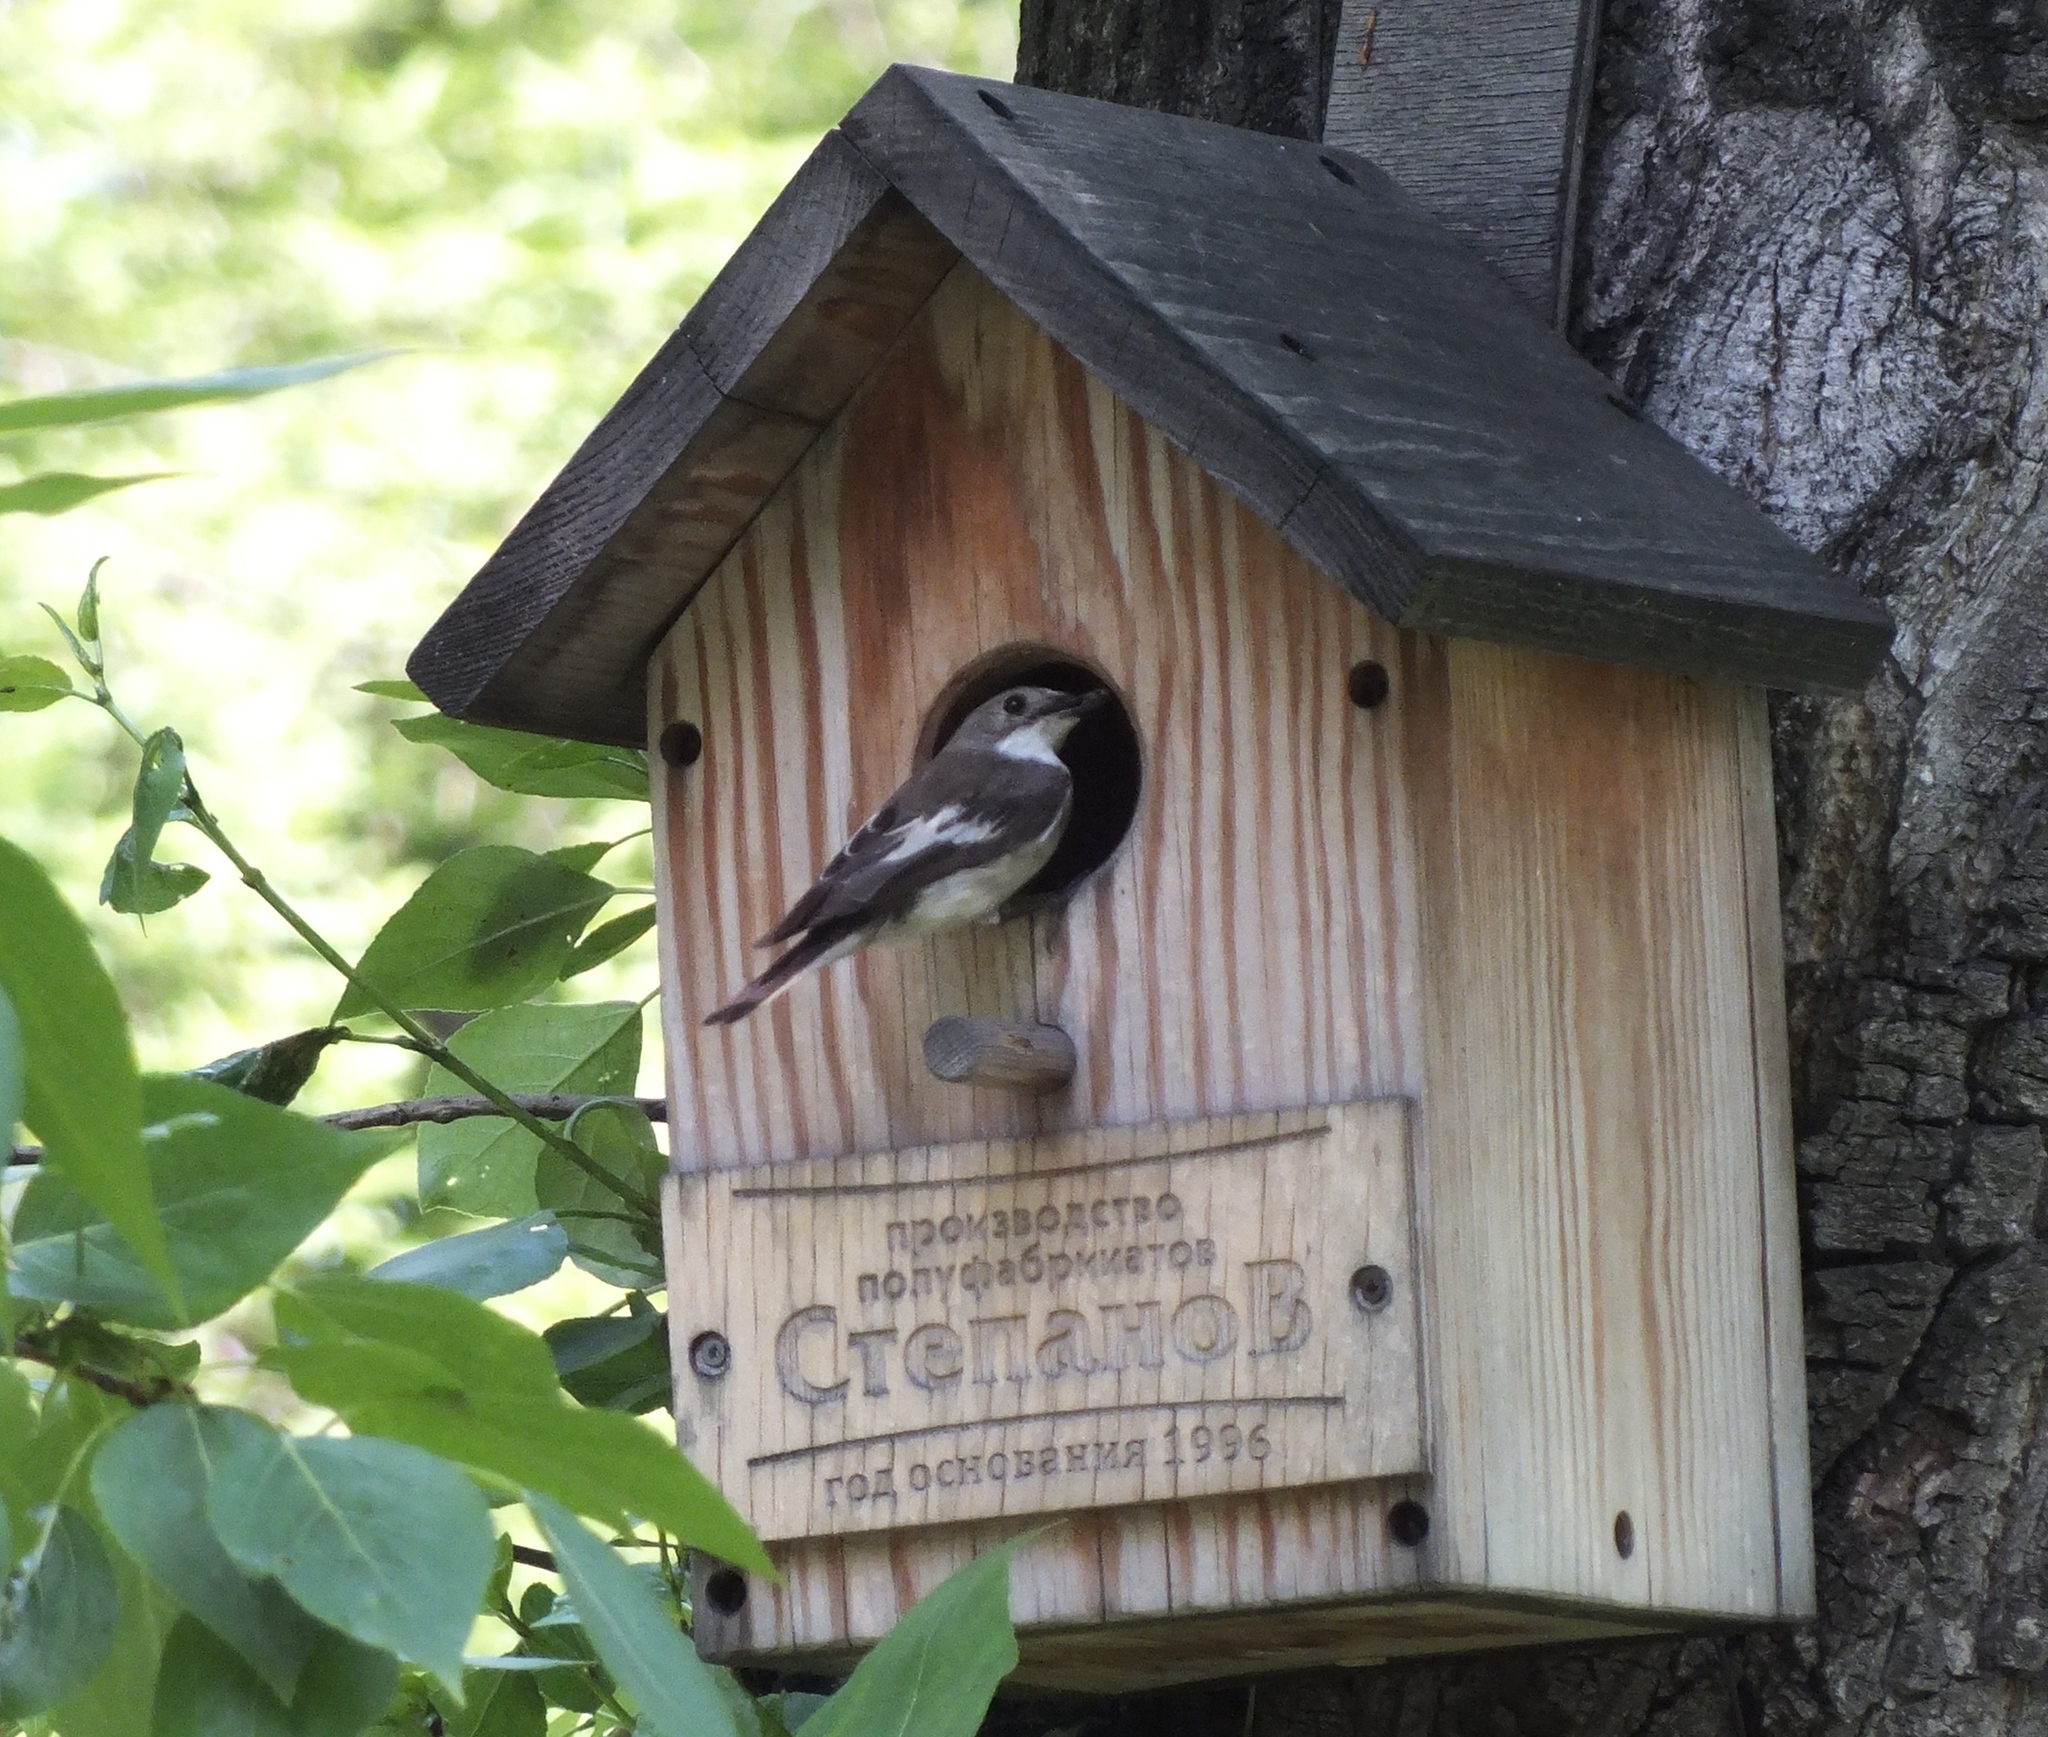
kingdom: Animalia
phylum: Chordata
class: Aves
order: Passeriformes
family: Muscicapidae
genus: Ficedula
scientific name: Ficedula hypoleuca
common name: European pied flycatcher
